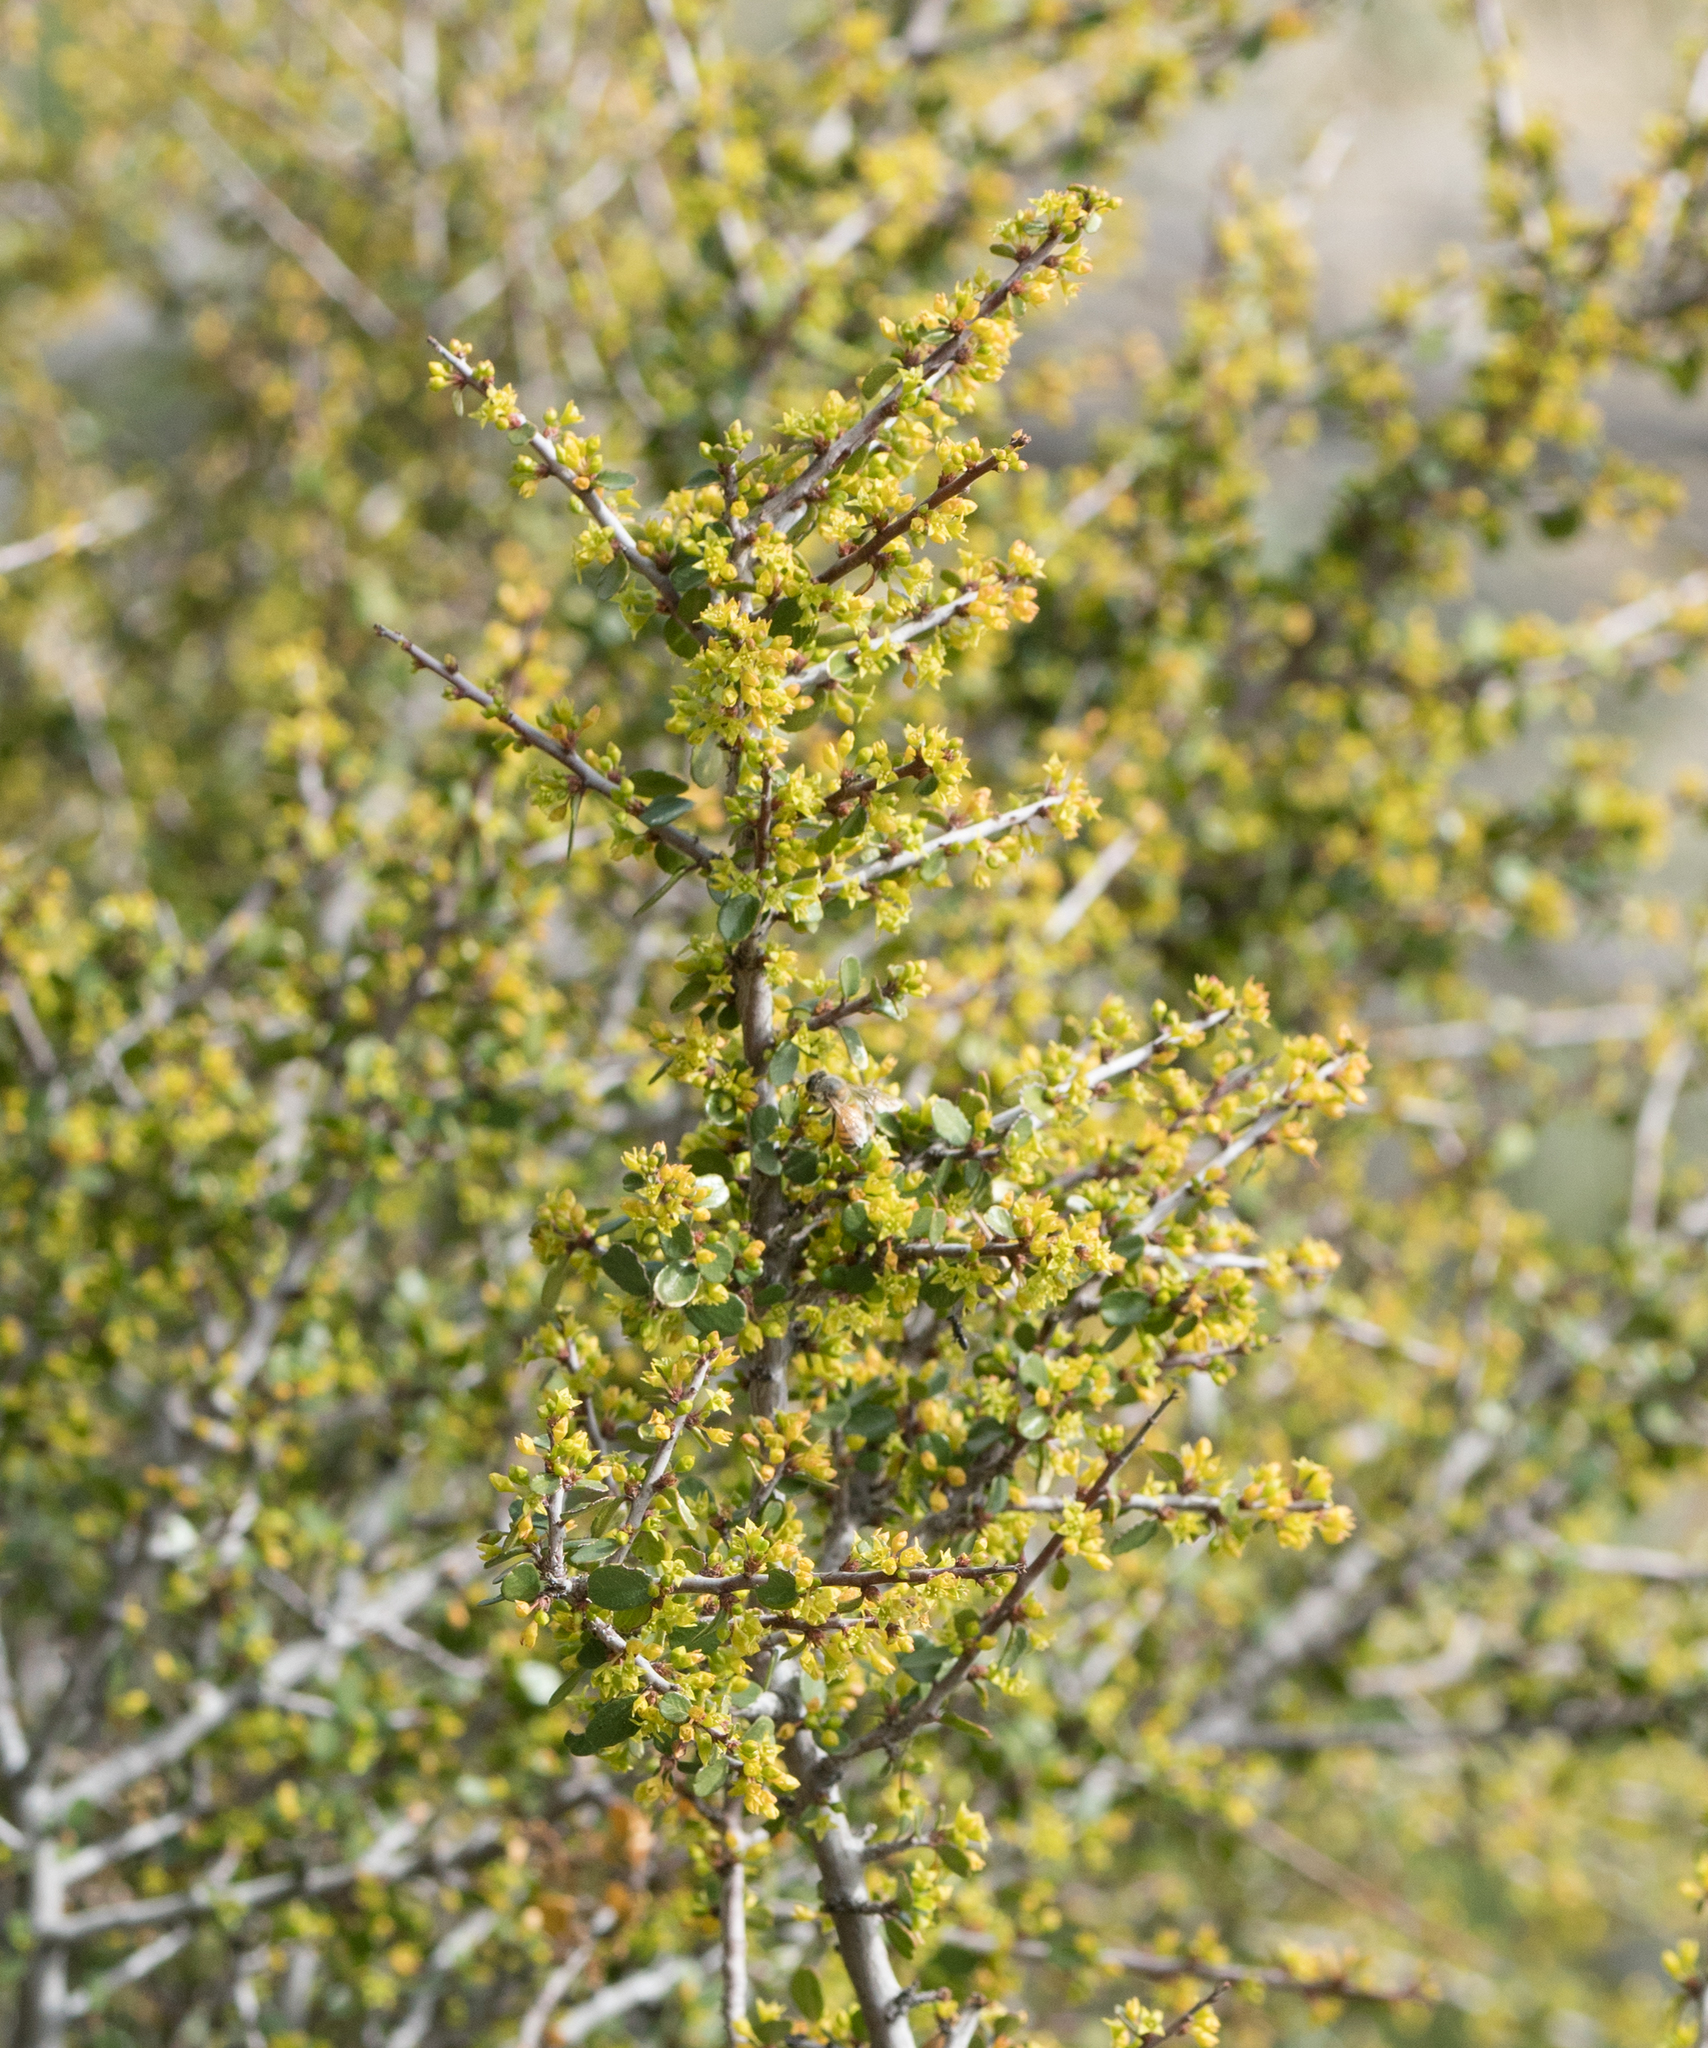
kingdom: Plantae
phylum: Tracheophyta
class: Magnoliopsida
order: Rosales
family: Rhamnaceae
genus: Endotropis
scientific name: Endotropis crocea
